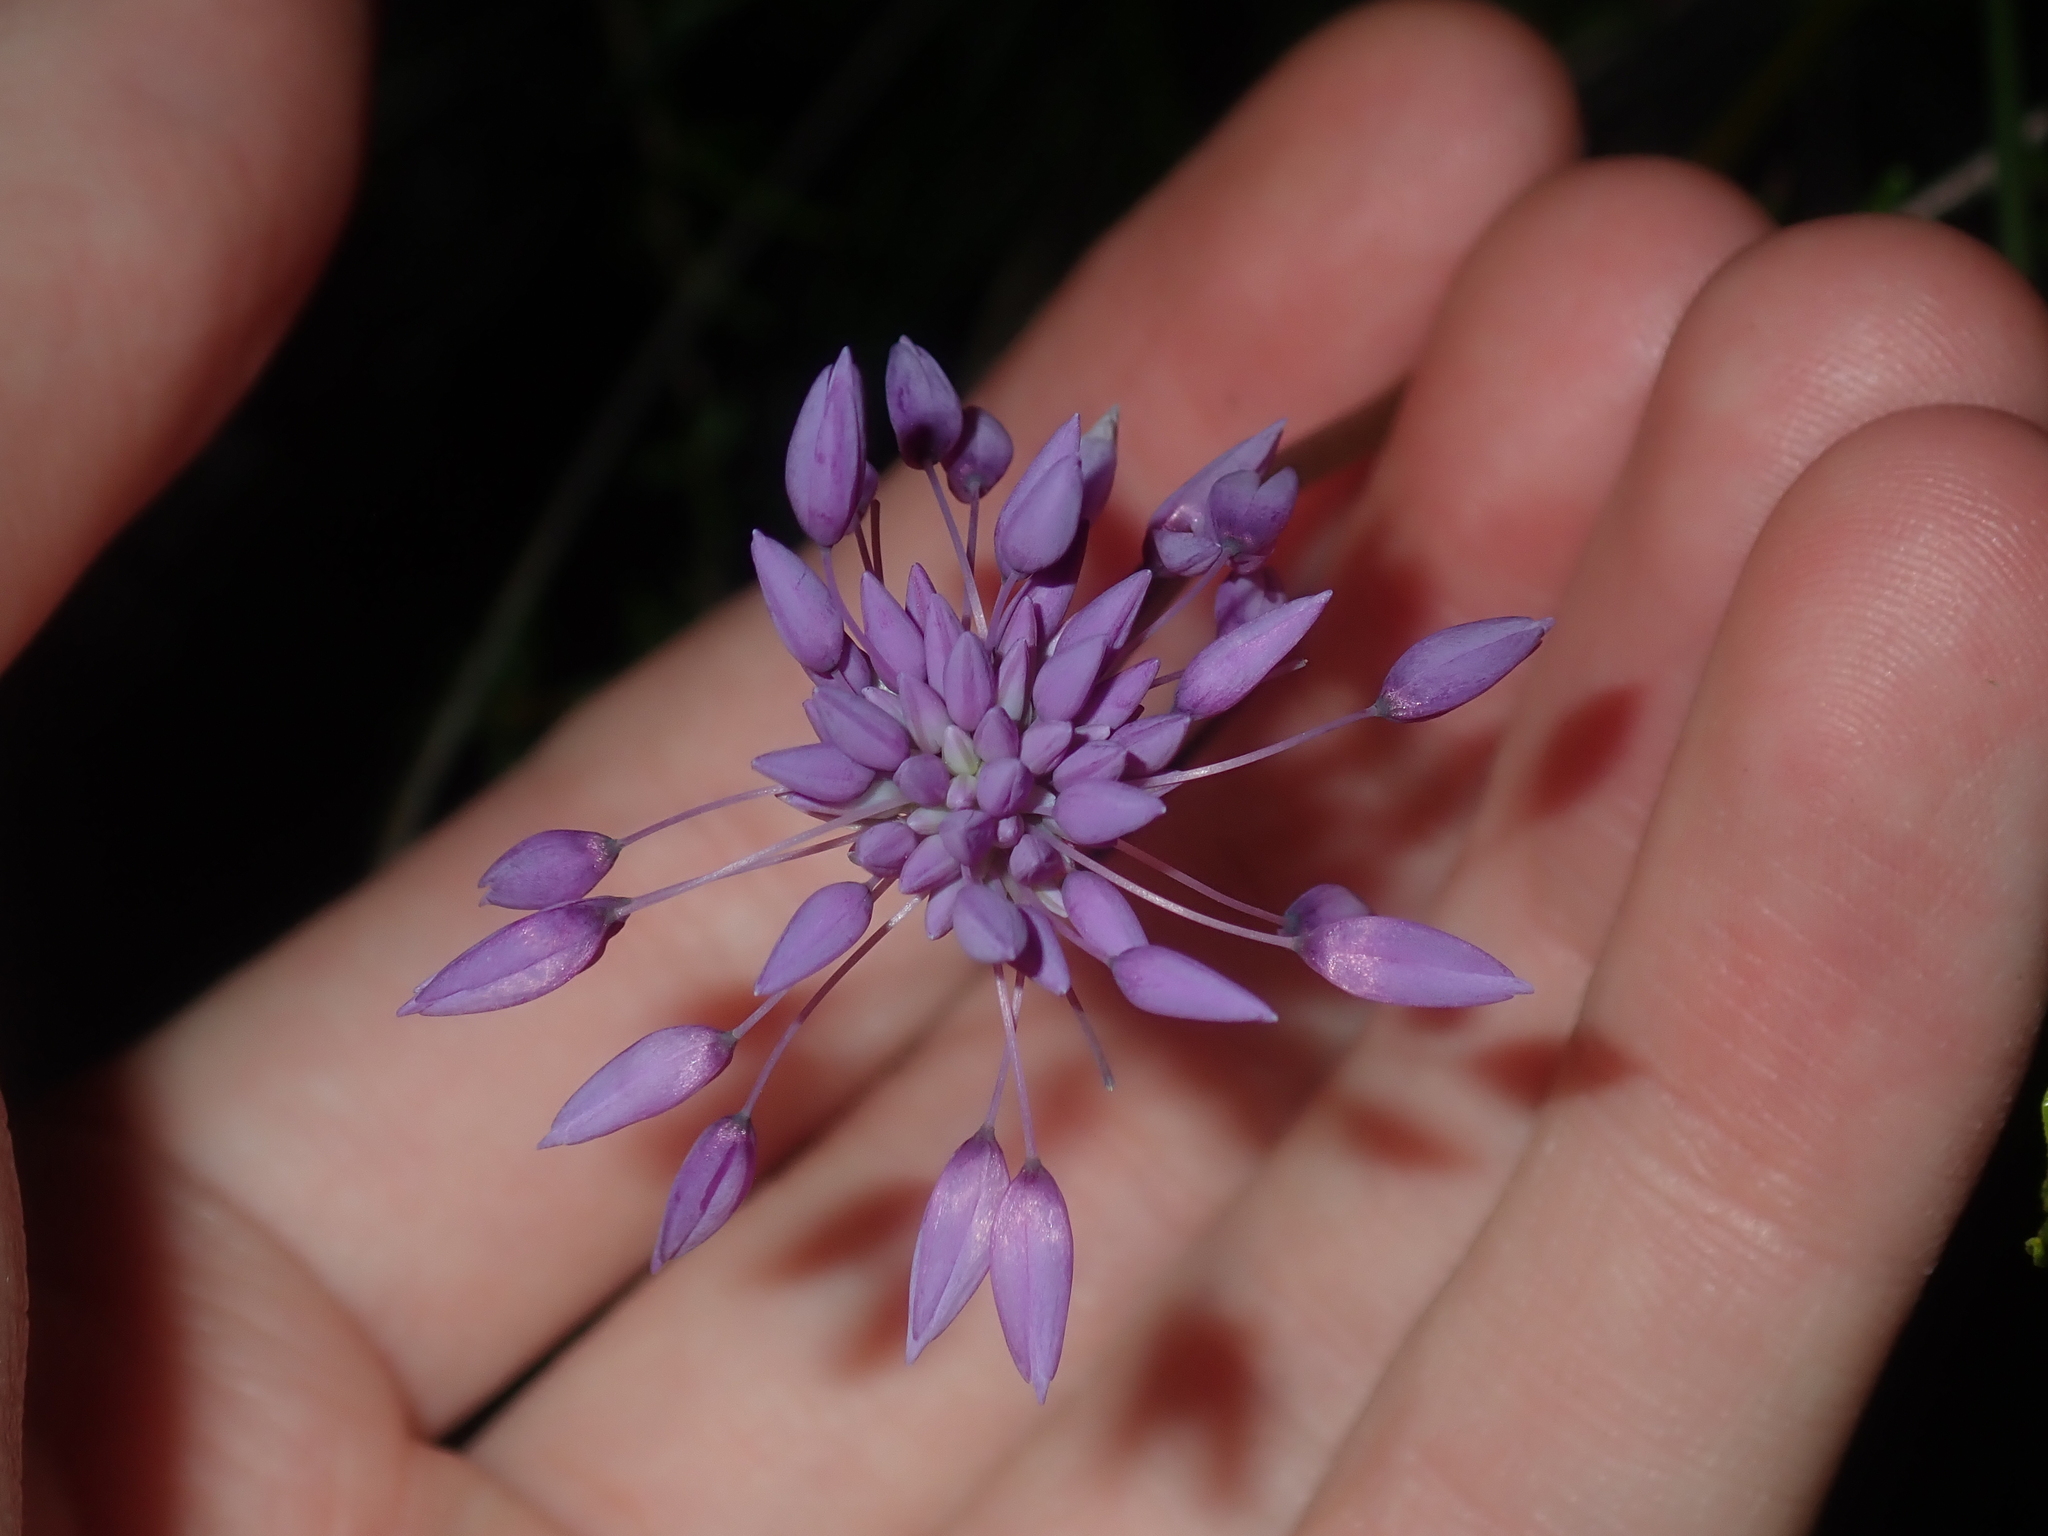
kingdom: Plantae
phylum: Tracheophyta
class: Liliopsida
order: Asparagales
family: Asparagaceae
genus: Sowerbaea
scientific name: Sowerbaea laxiflora
